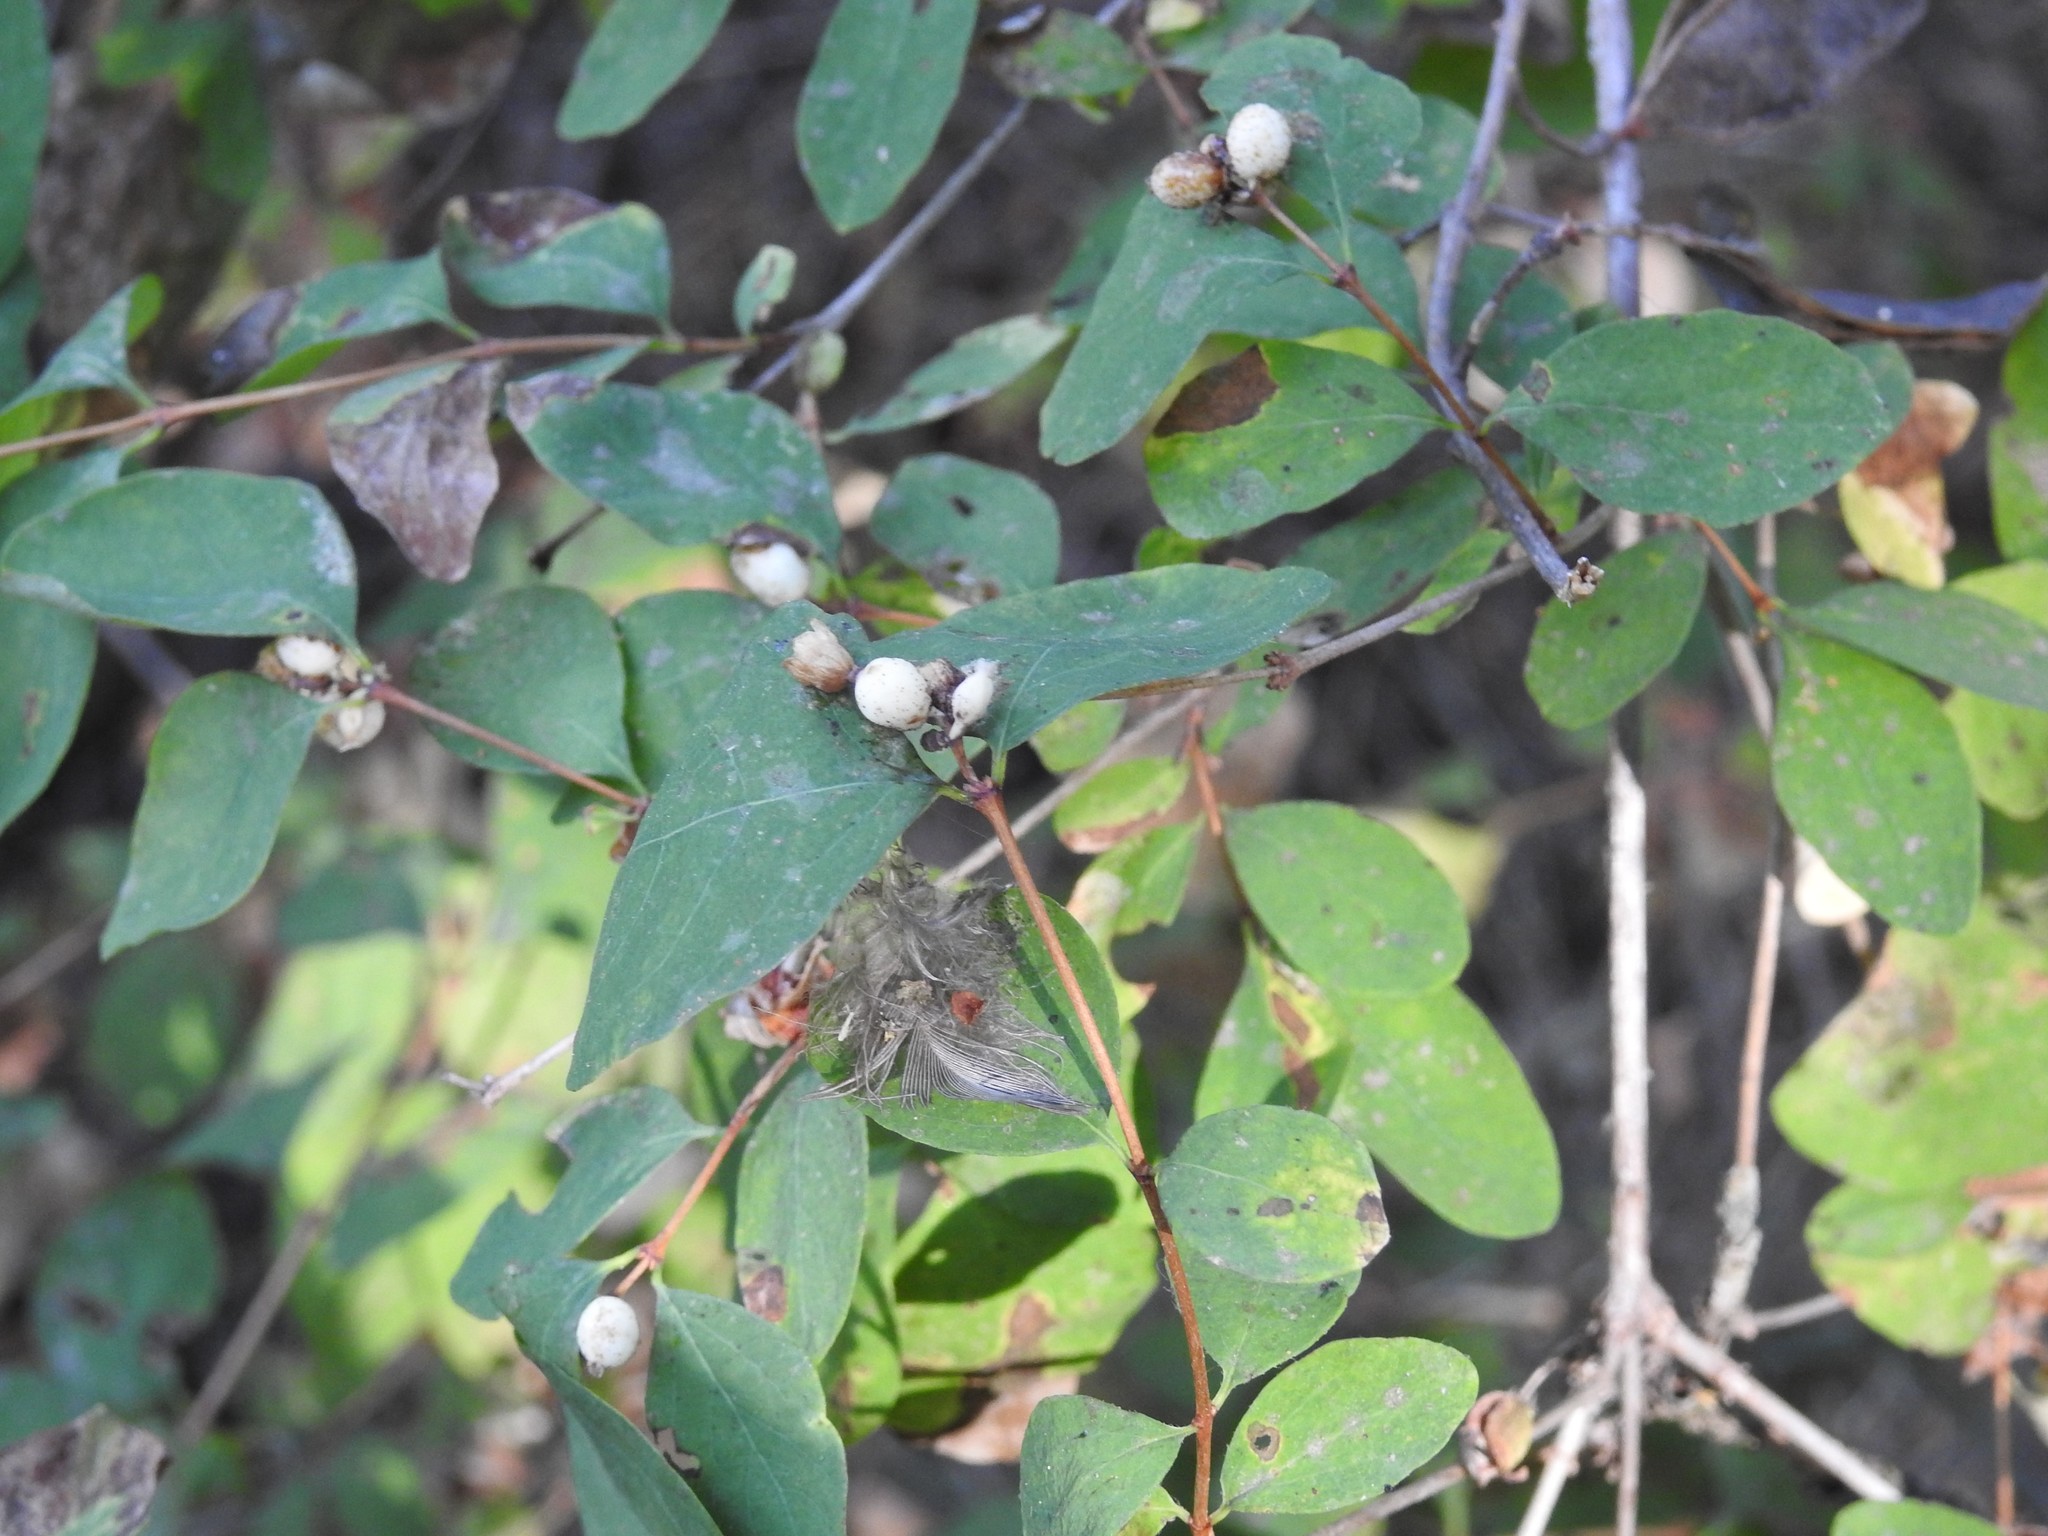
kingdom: Plantae
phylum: Tracheophyta
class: Magnoliopsida
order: Dipsacales
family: Caprifoliaceae
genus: Symphoricarpos
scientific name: Symphoricarpos albus
